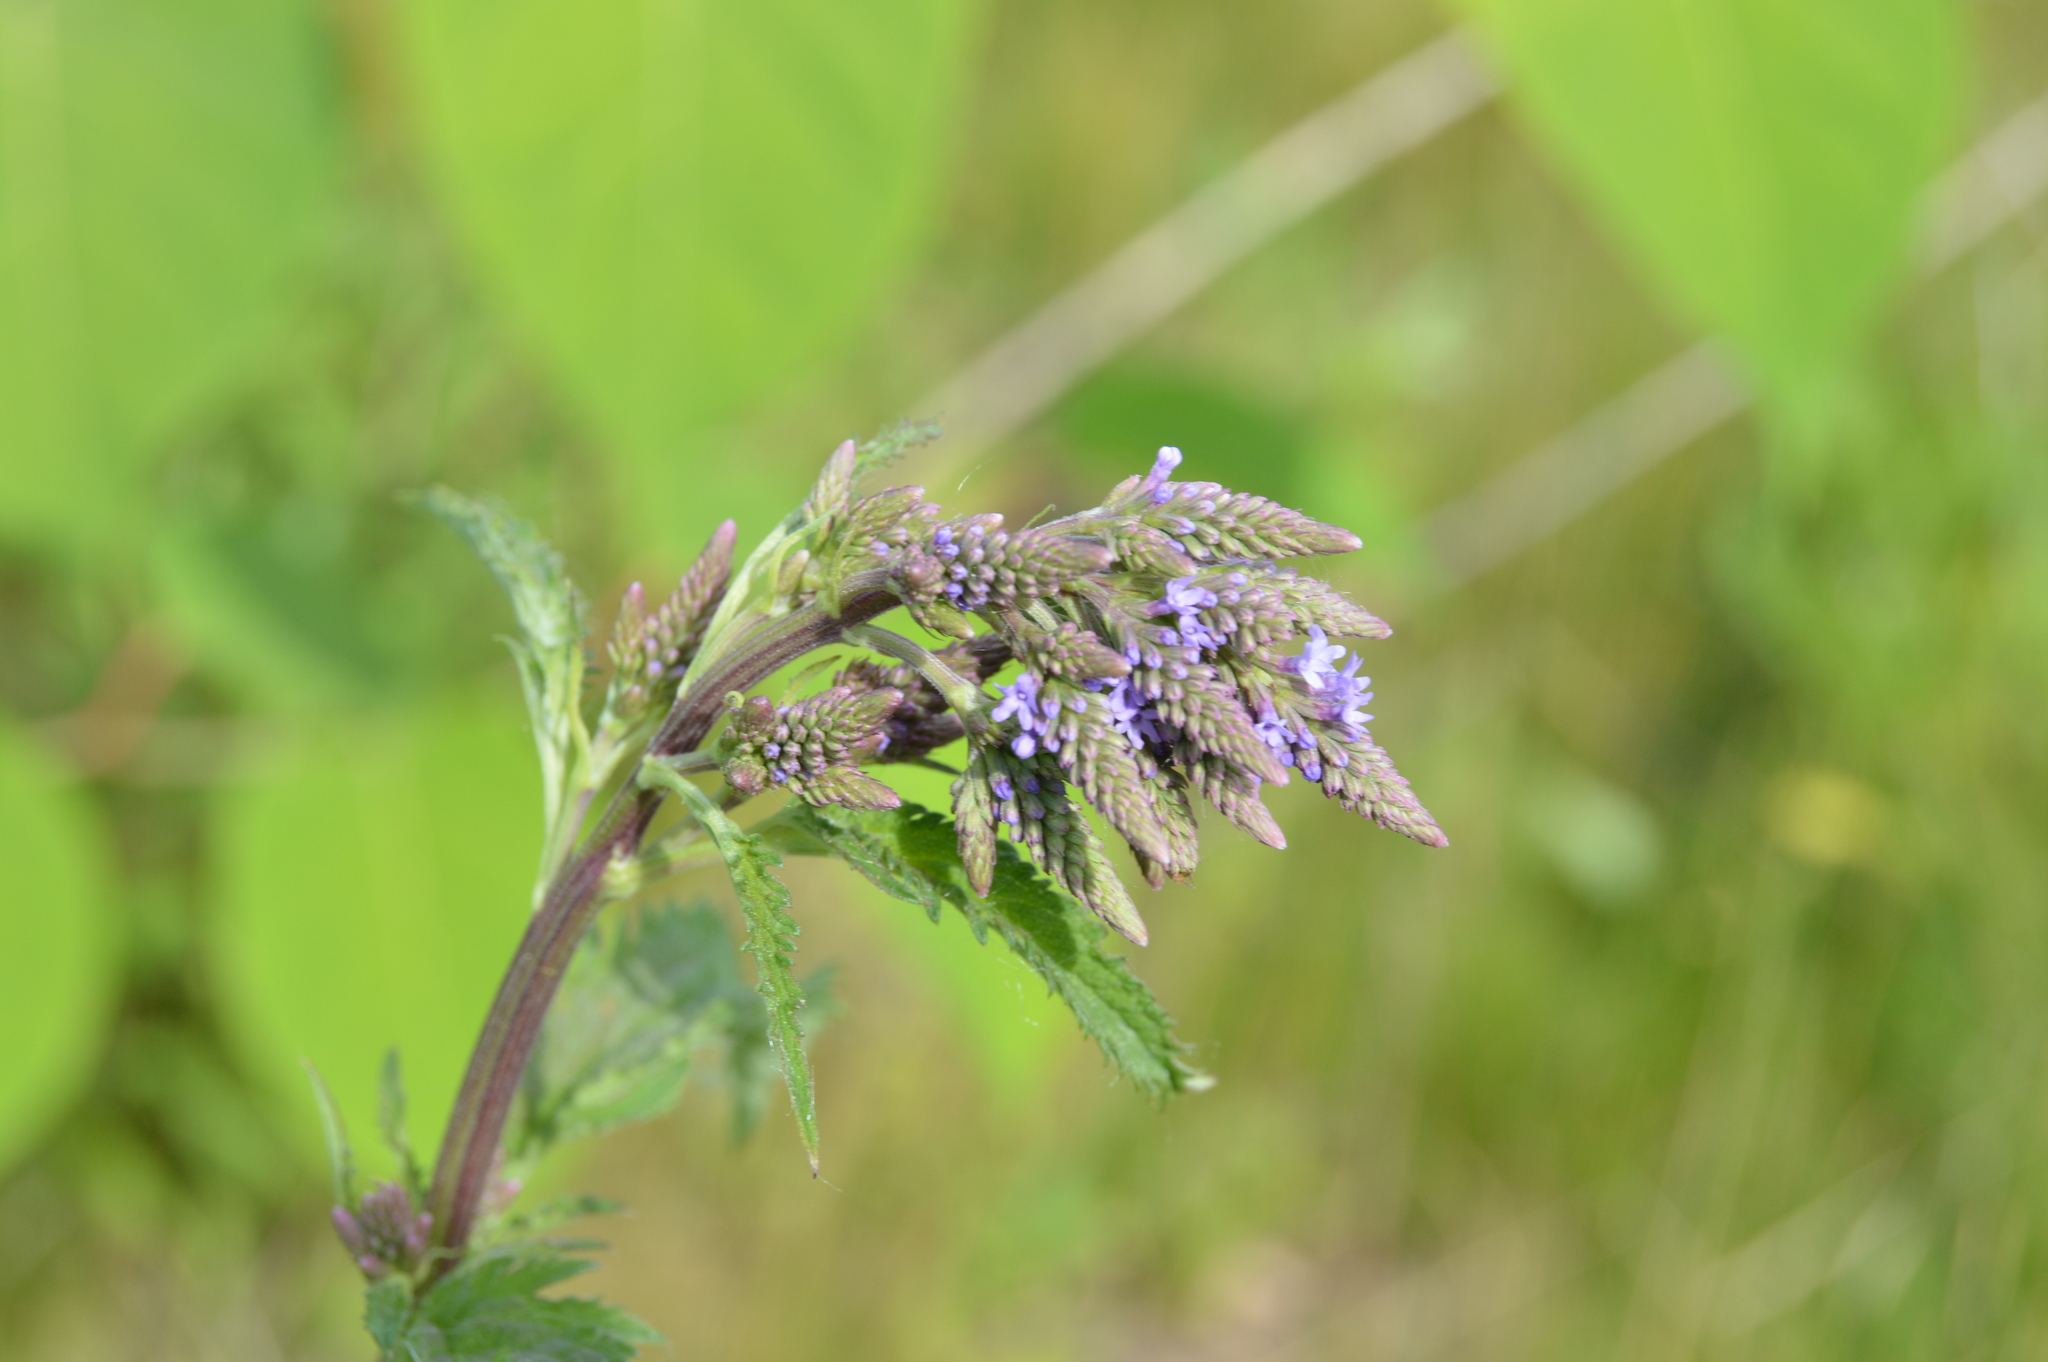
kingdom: Plantae
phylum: Tracheophyta
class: Magnoliopsida
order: Lamiales
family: Verbenaceae
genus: Verbena
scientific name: Verbena hastata
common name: American blue vervain
